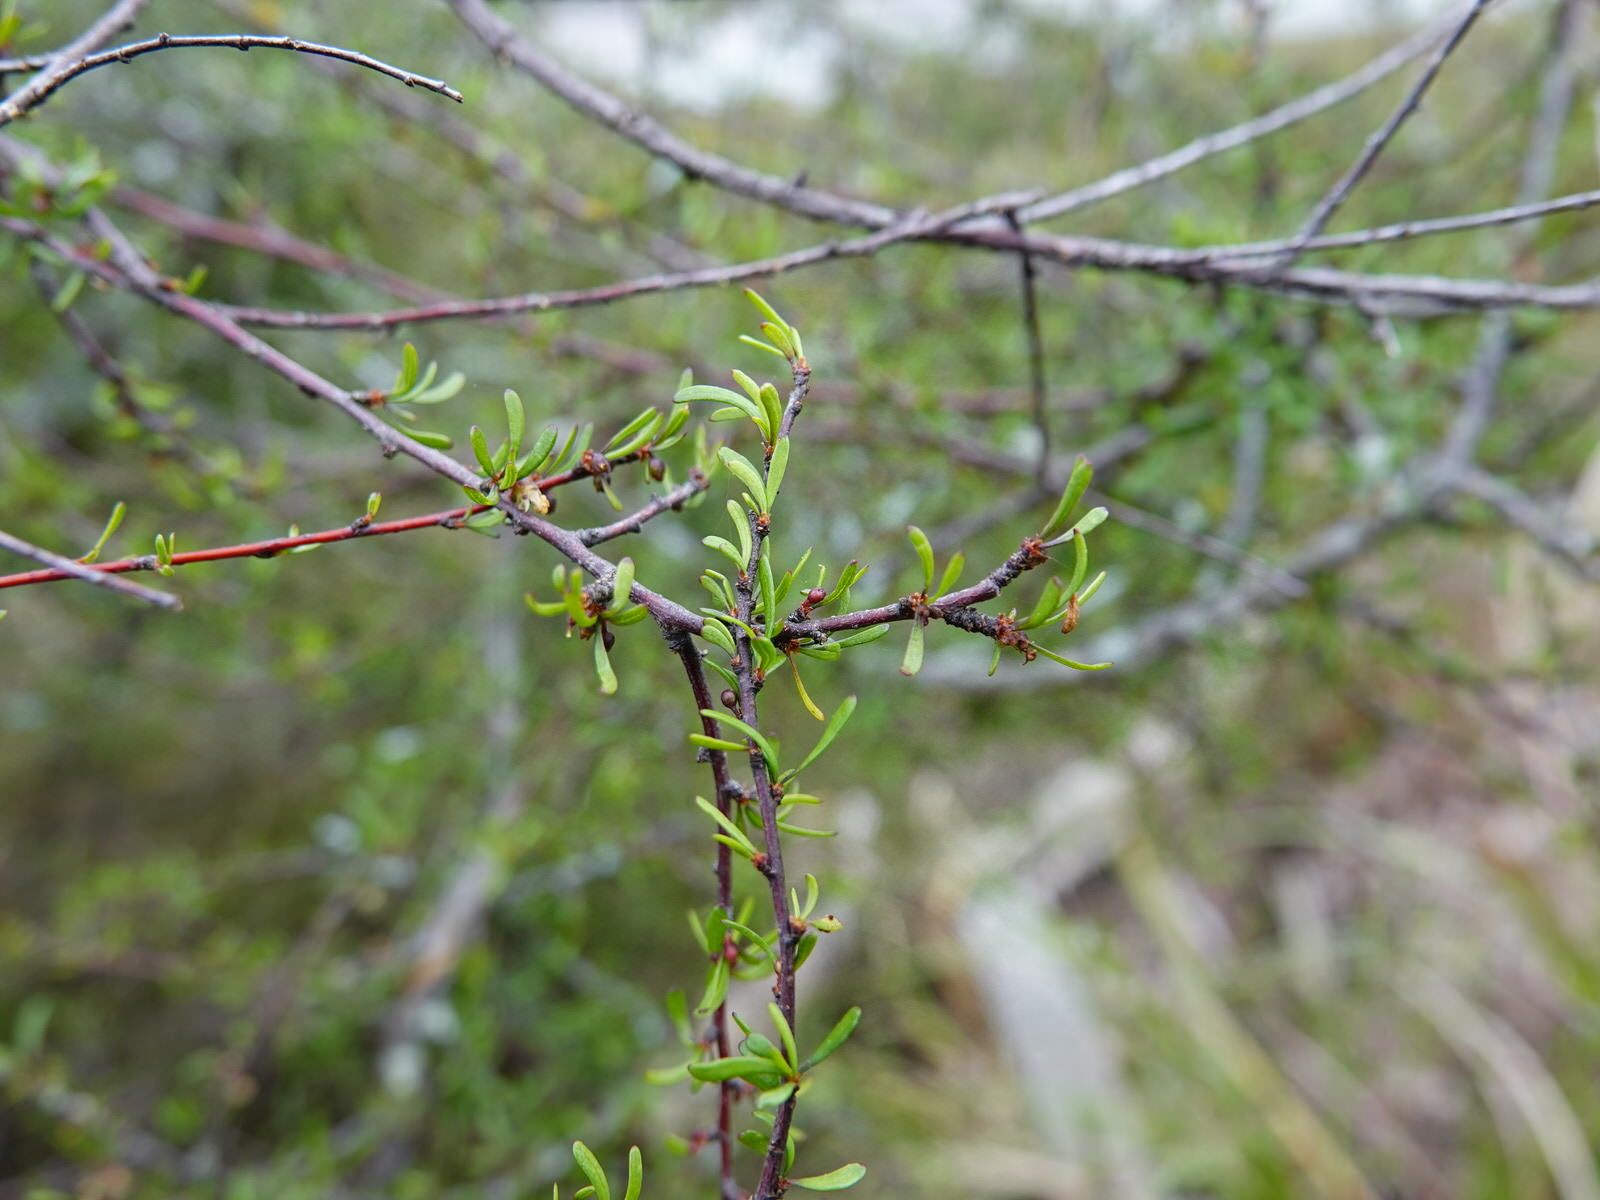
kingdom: Plantae
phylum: Tracheophyta
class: Magnoliopsida
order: Malvales
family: Malvaceae
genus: Plagianthus
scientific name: Plagianthus divaricatus
